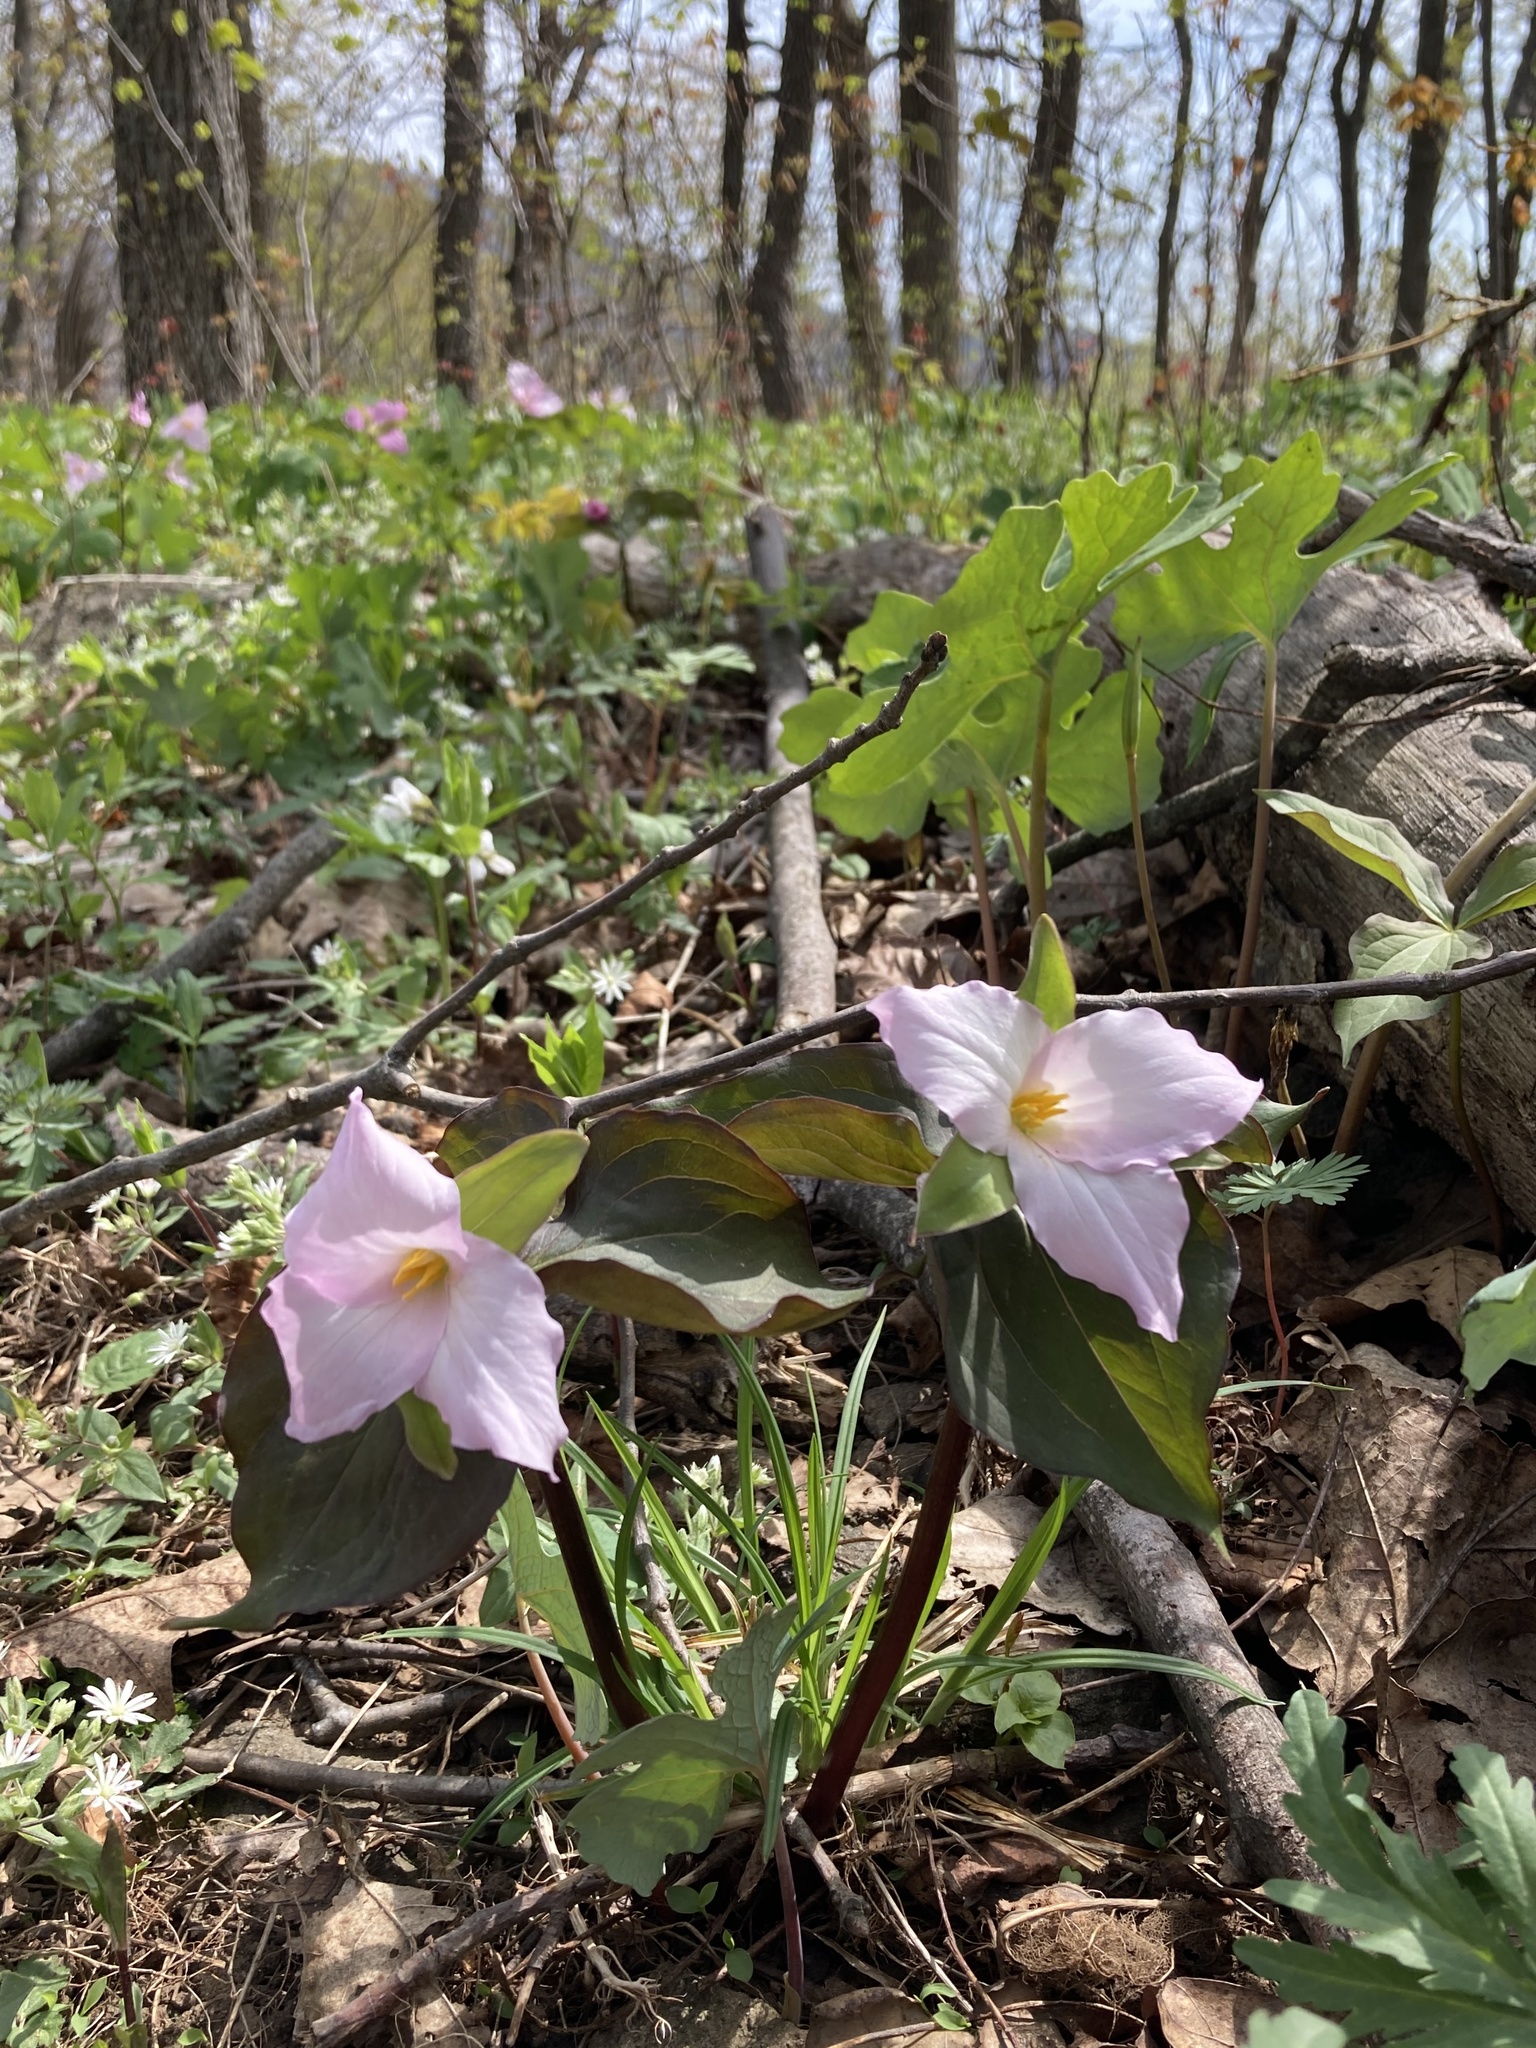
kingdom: Plantae
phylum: Tracheophyta
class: Liliopsida
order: Liliales
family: Melanthiaceae
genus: Trillium
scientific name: Trillium grandiflorum
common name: Great white trillium
